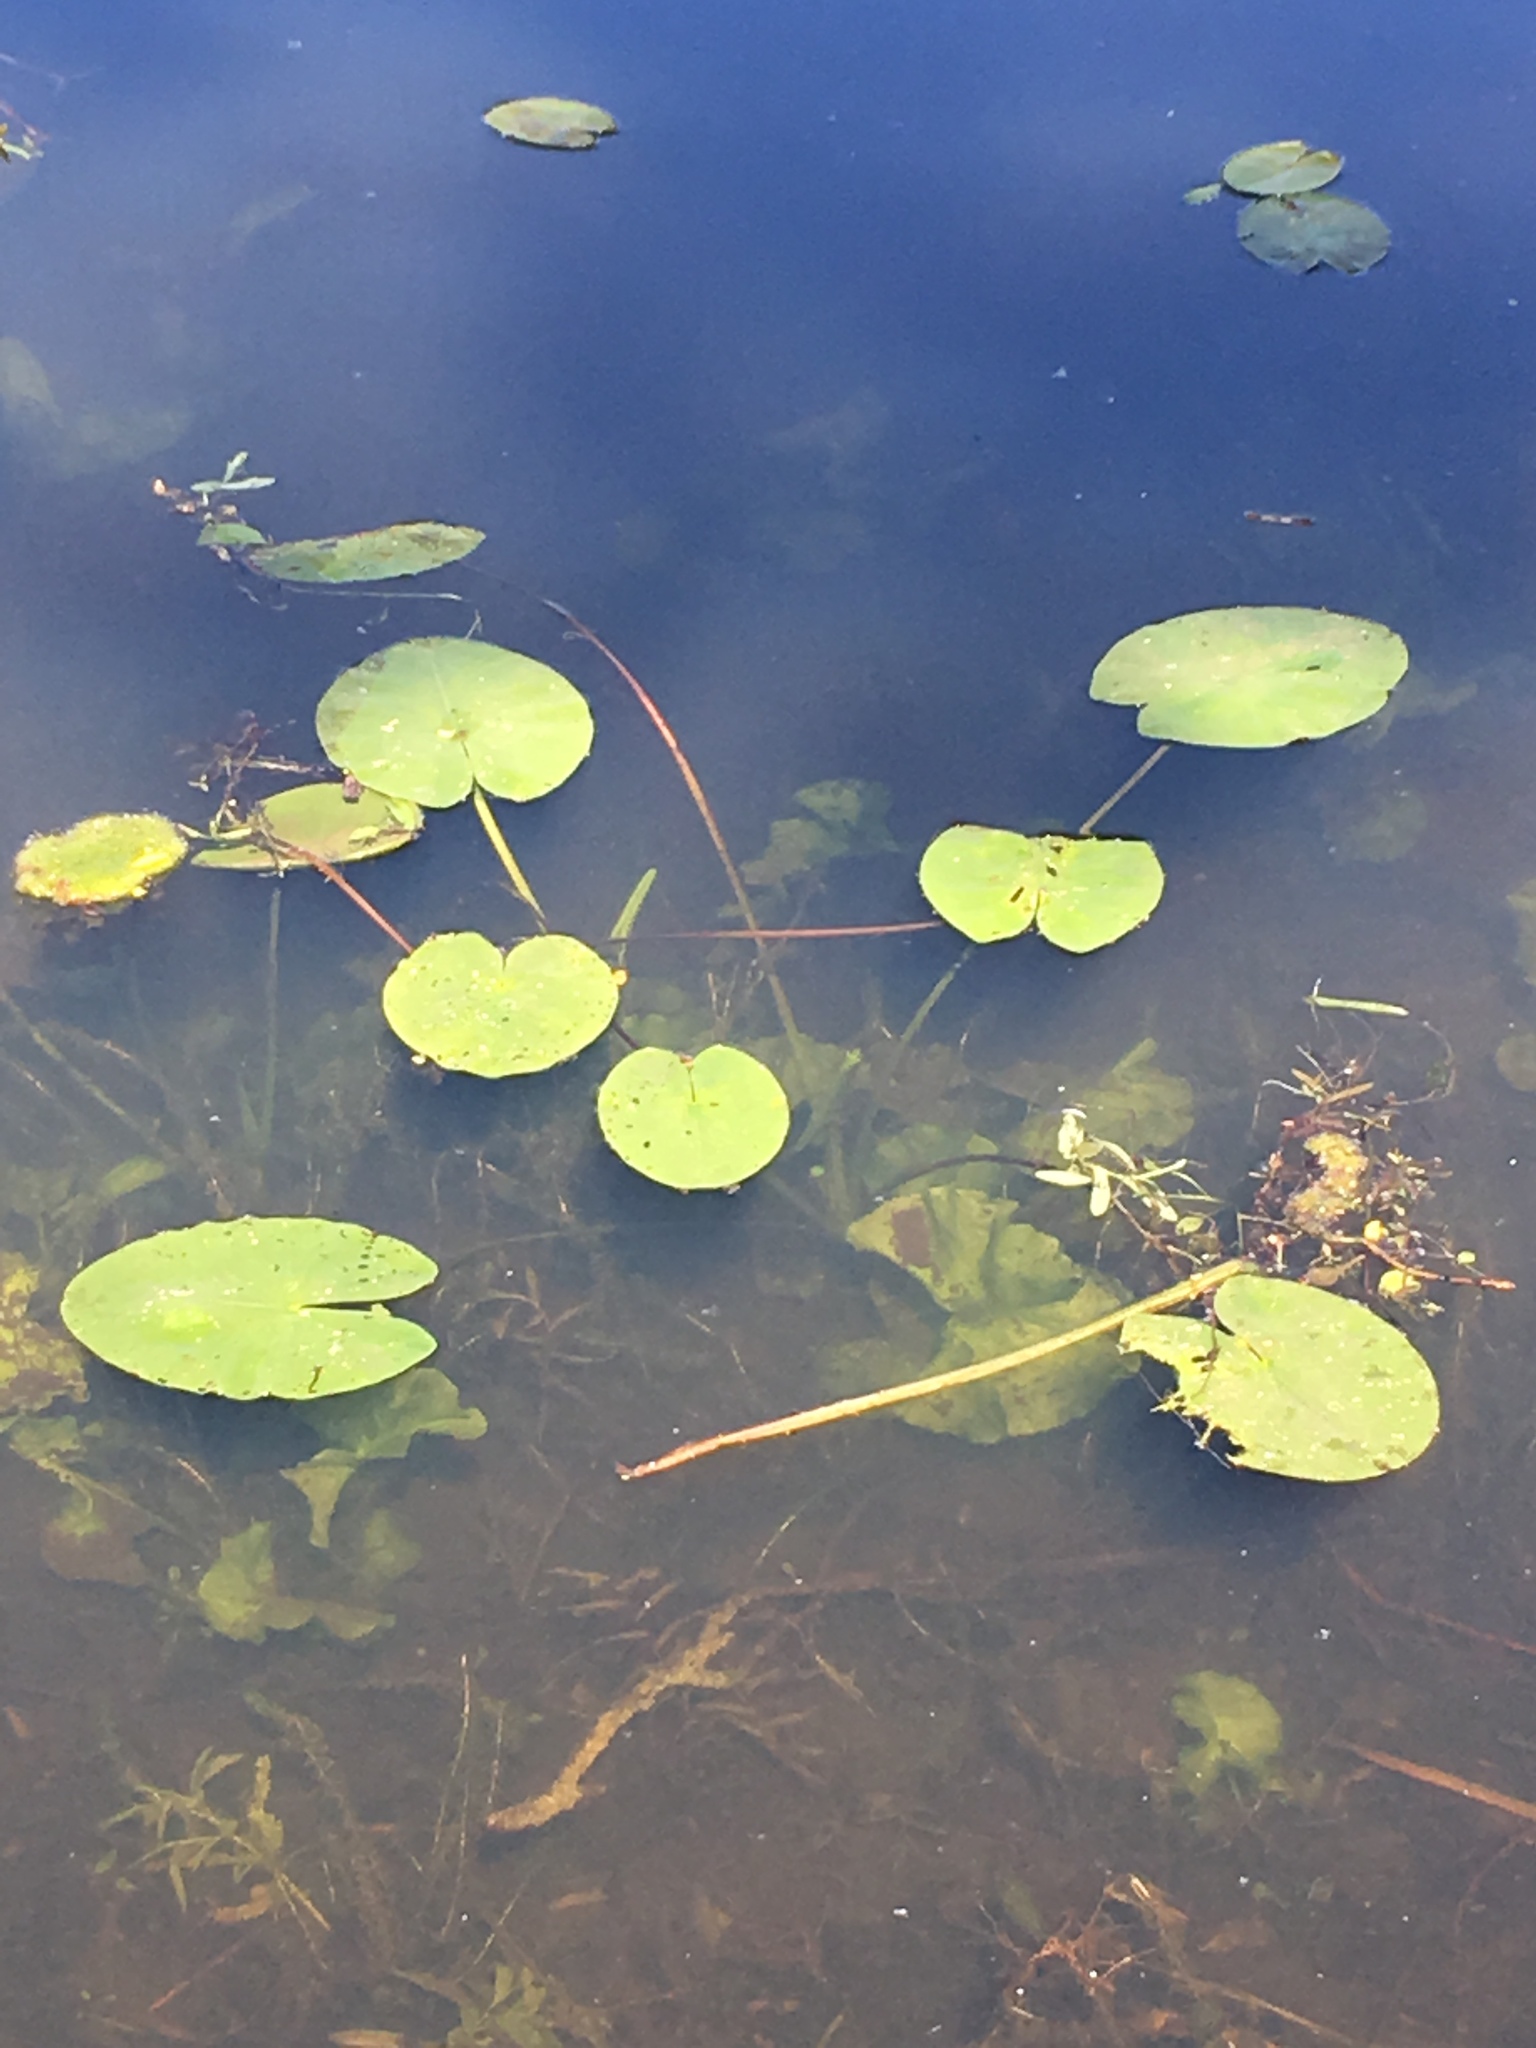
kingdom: Plantae
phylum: Tracheophyta
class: Magnoliopsida
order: Nymphaeales
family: Nymphaeaceae
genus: Nuphar
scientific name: Nuphar lutea
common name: Yellow water-lily
